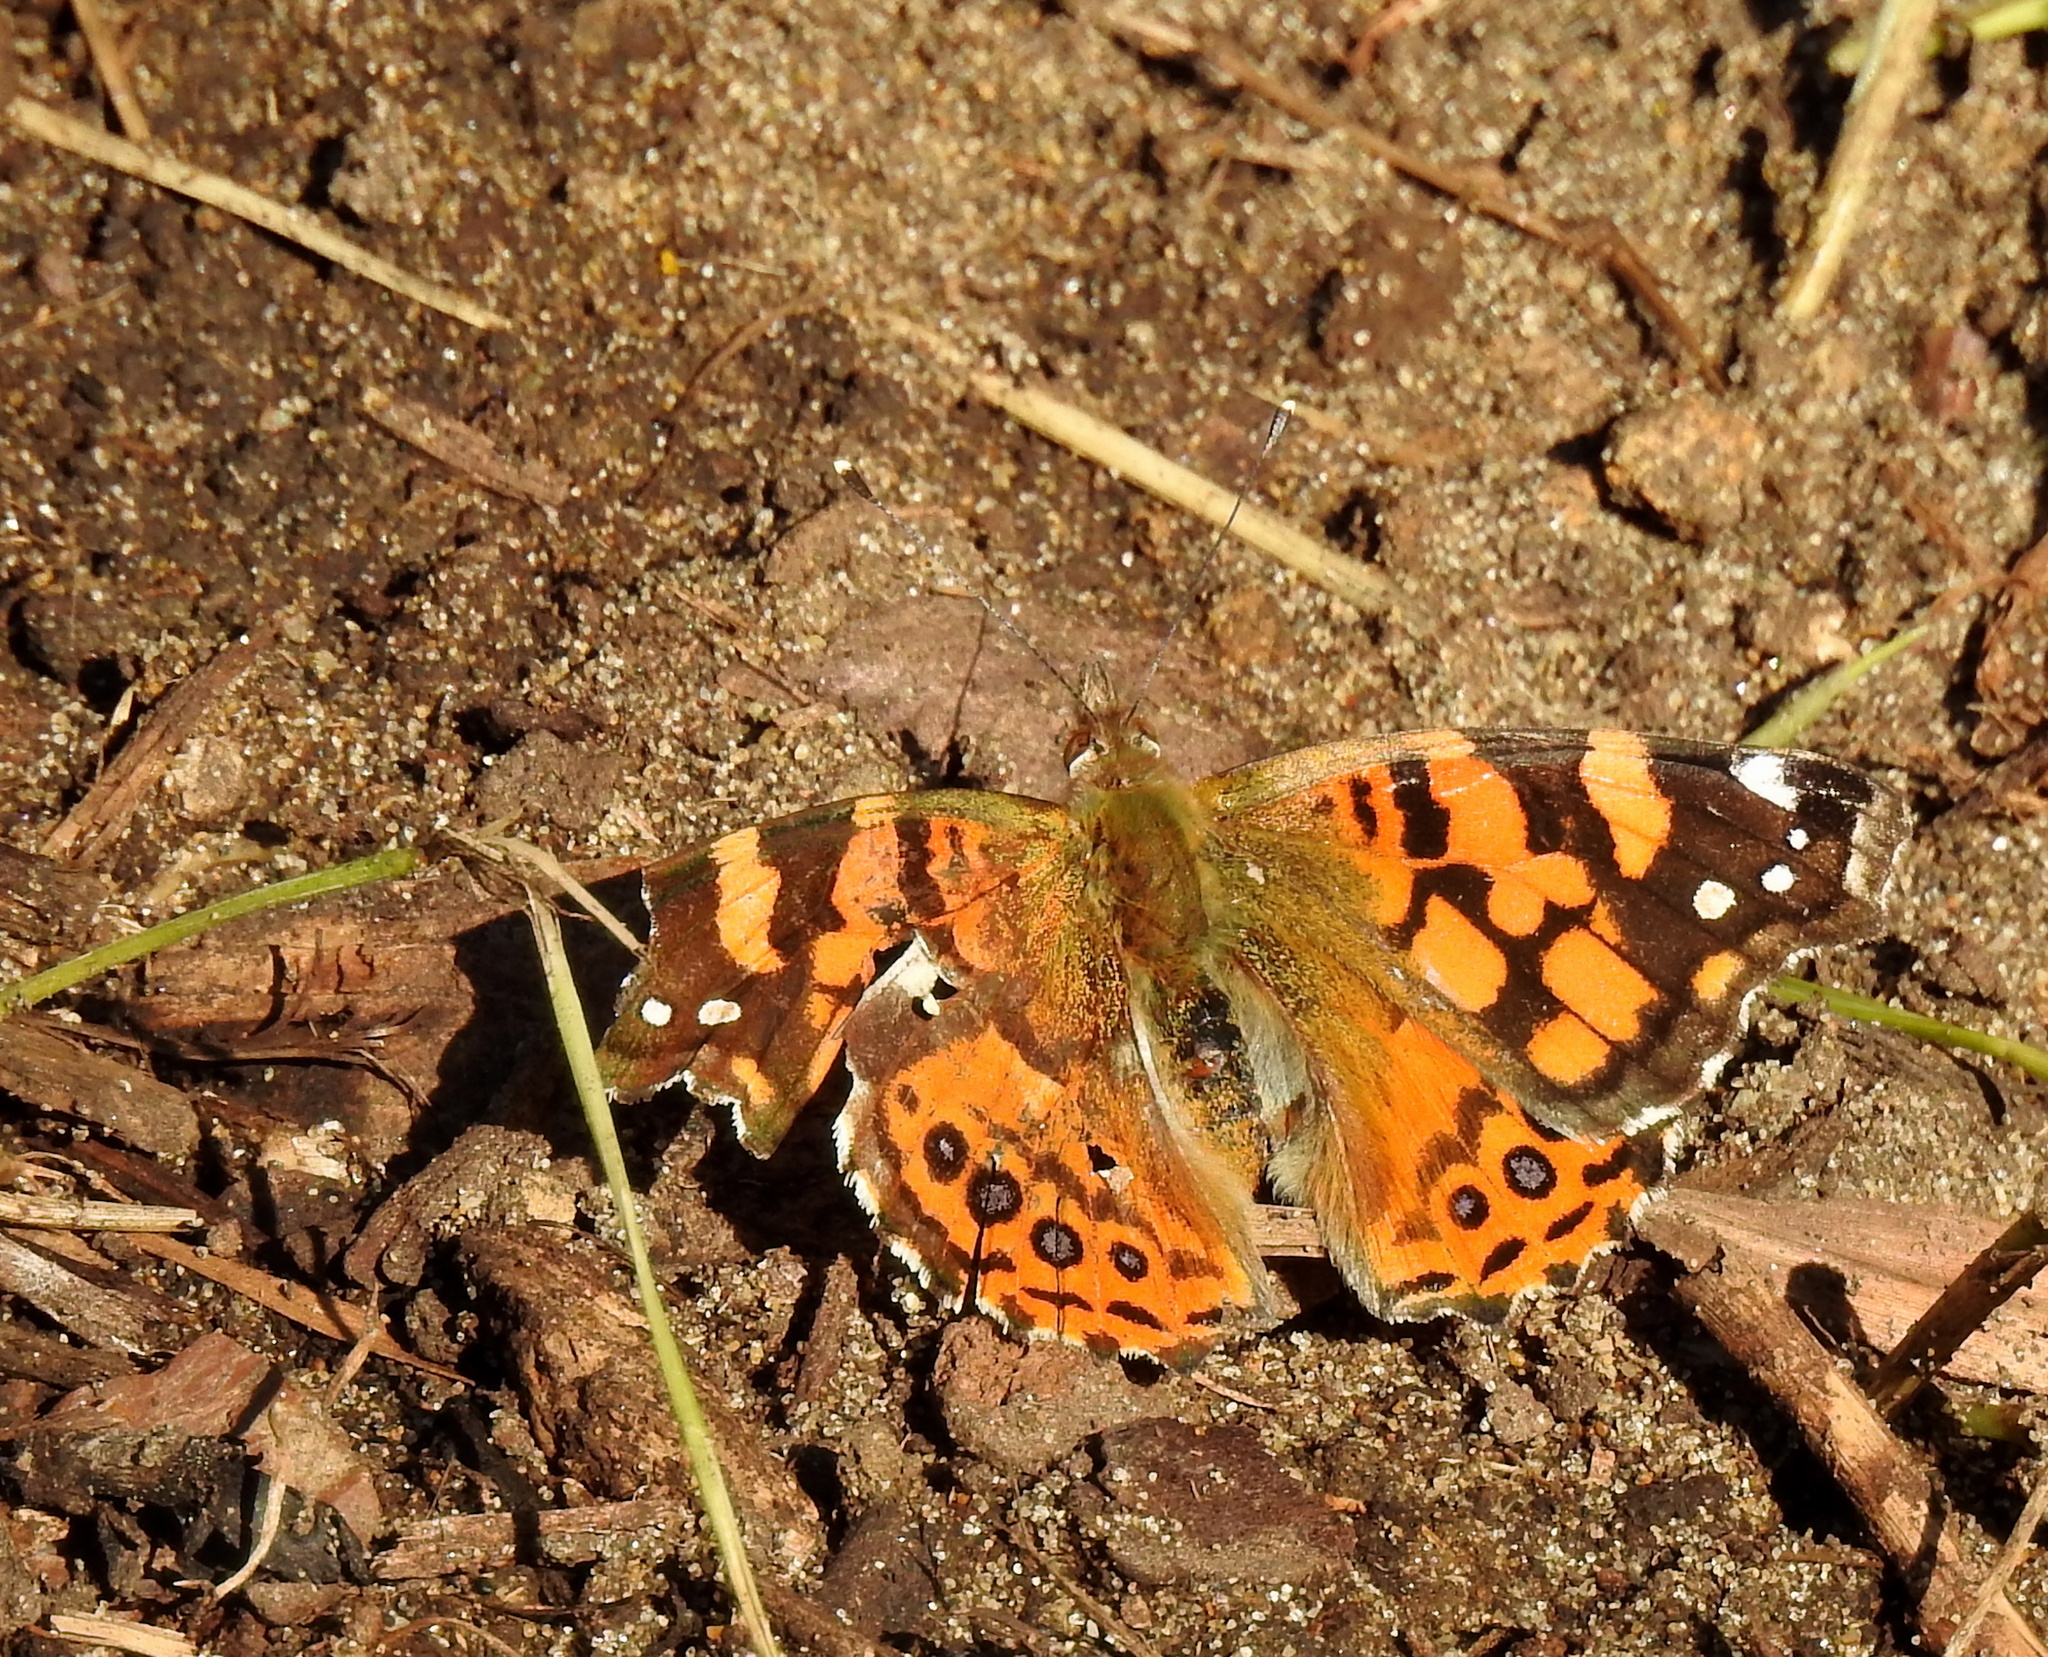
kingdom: Animalia
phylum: Arthropoda
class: Insecta
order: Lepidoptera
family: Nymphalidae
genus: Vanessa
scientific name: Vanessa annabella
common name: West coast lady
